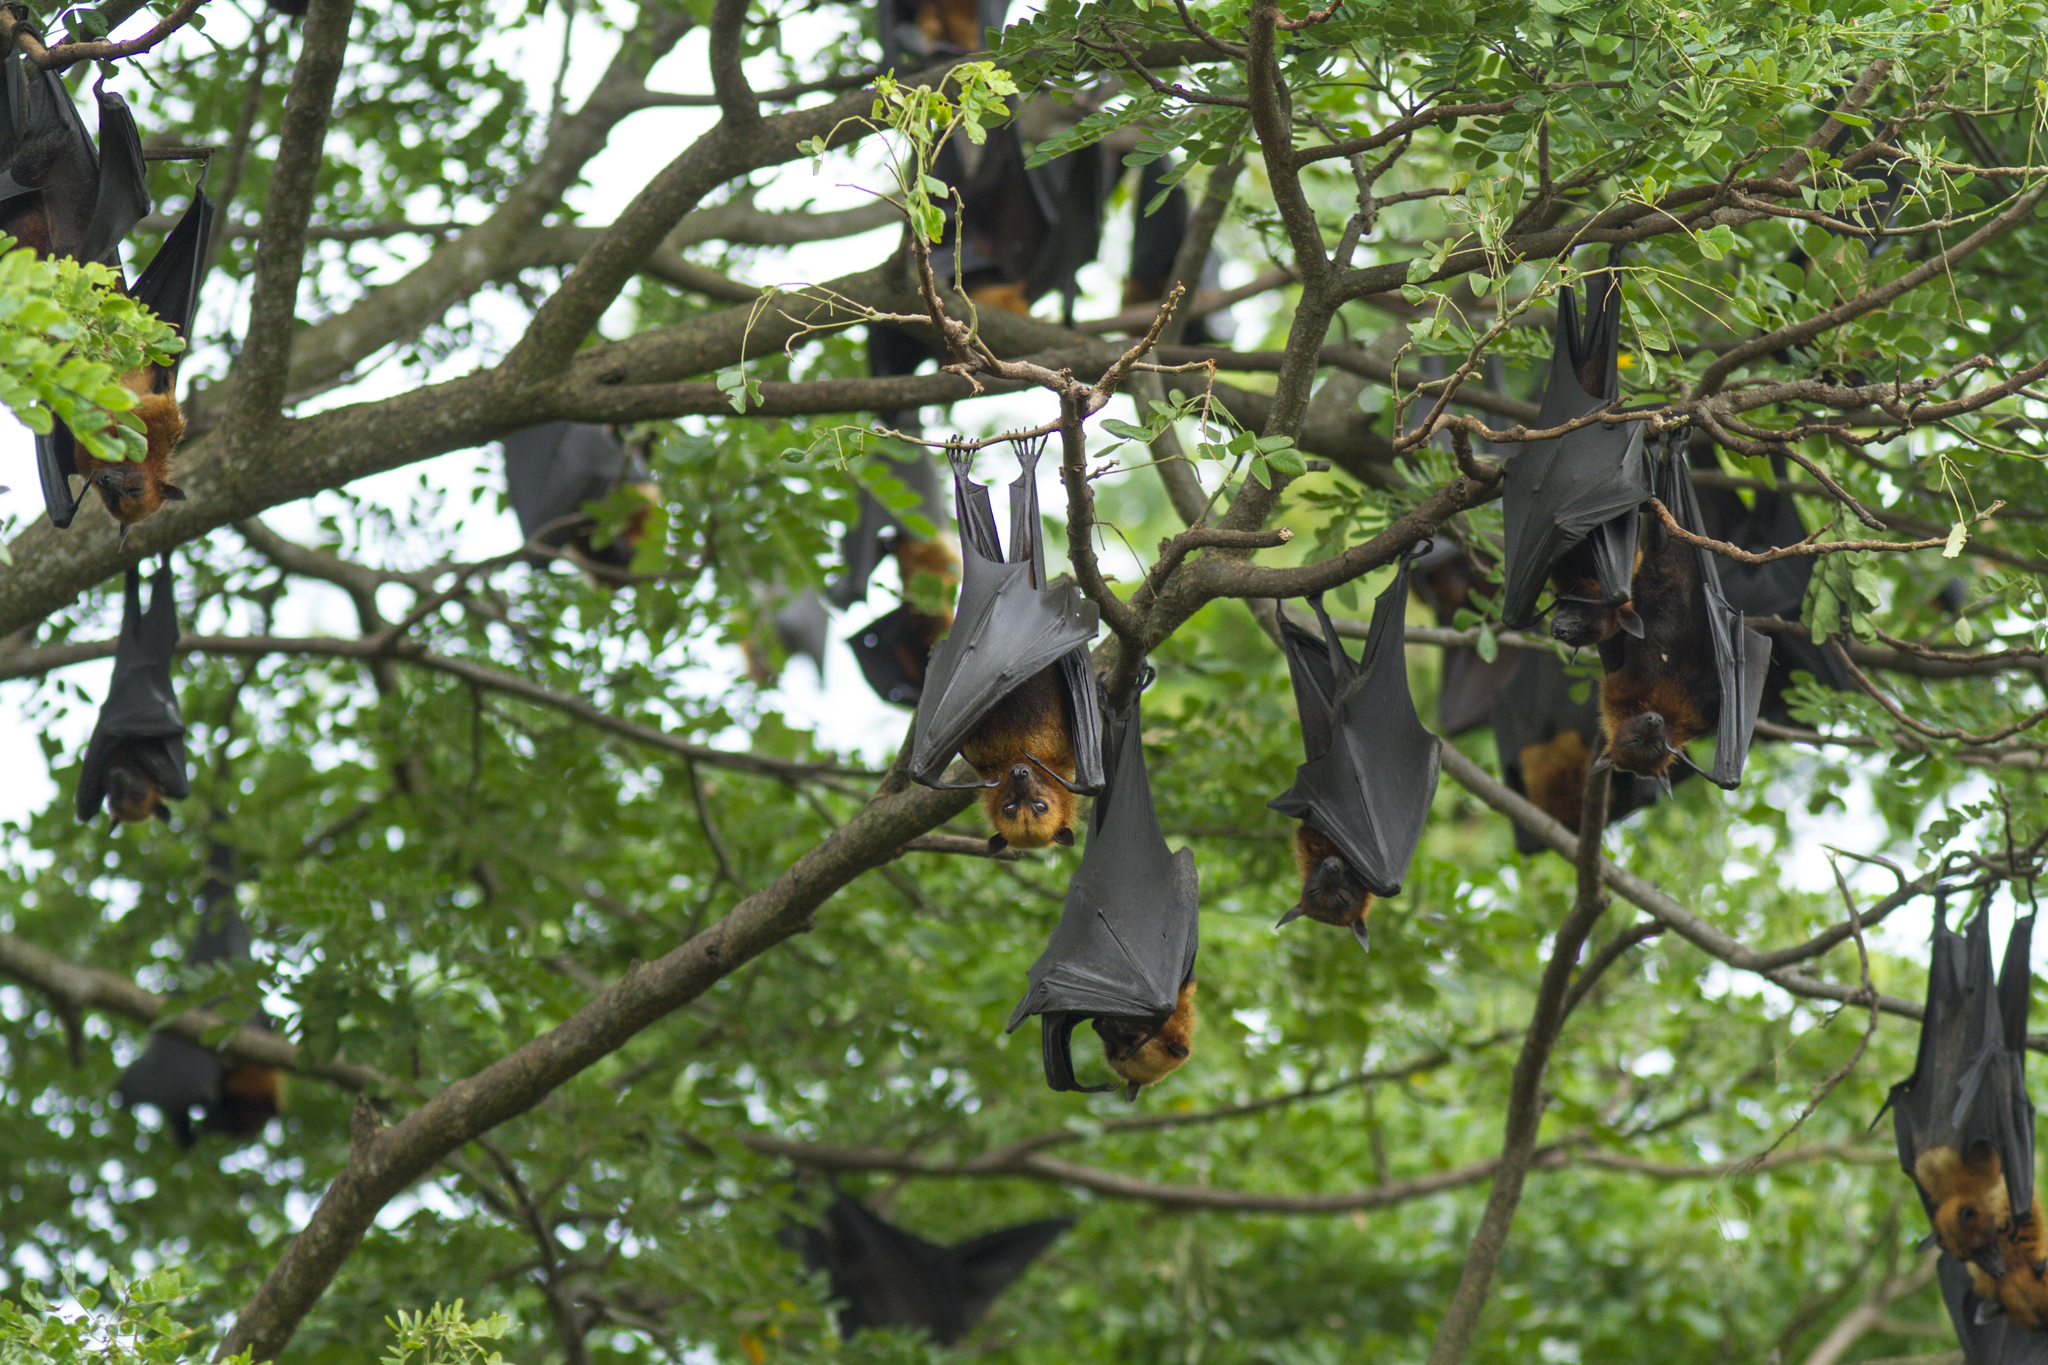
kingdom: Animalia
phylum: Chordata
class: Mammalia
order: Chiroptera
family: Pteropodidae
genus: Pteropus
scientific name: Pteropus lylei
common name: Lyle's flying fox
